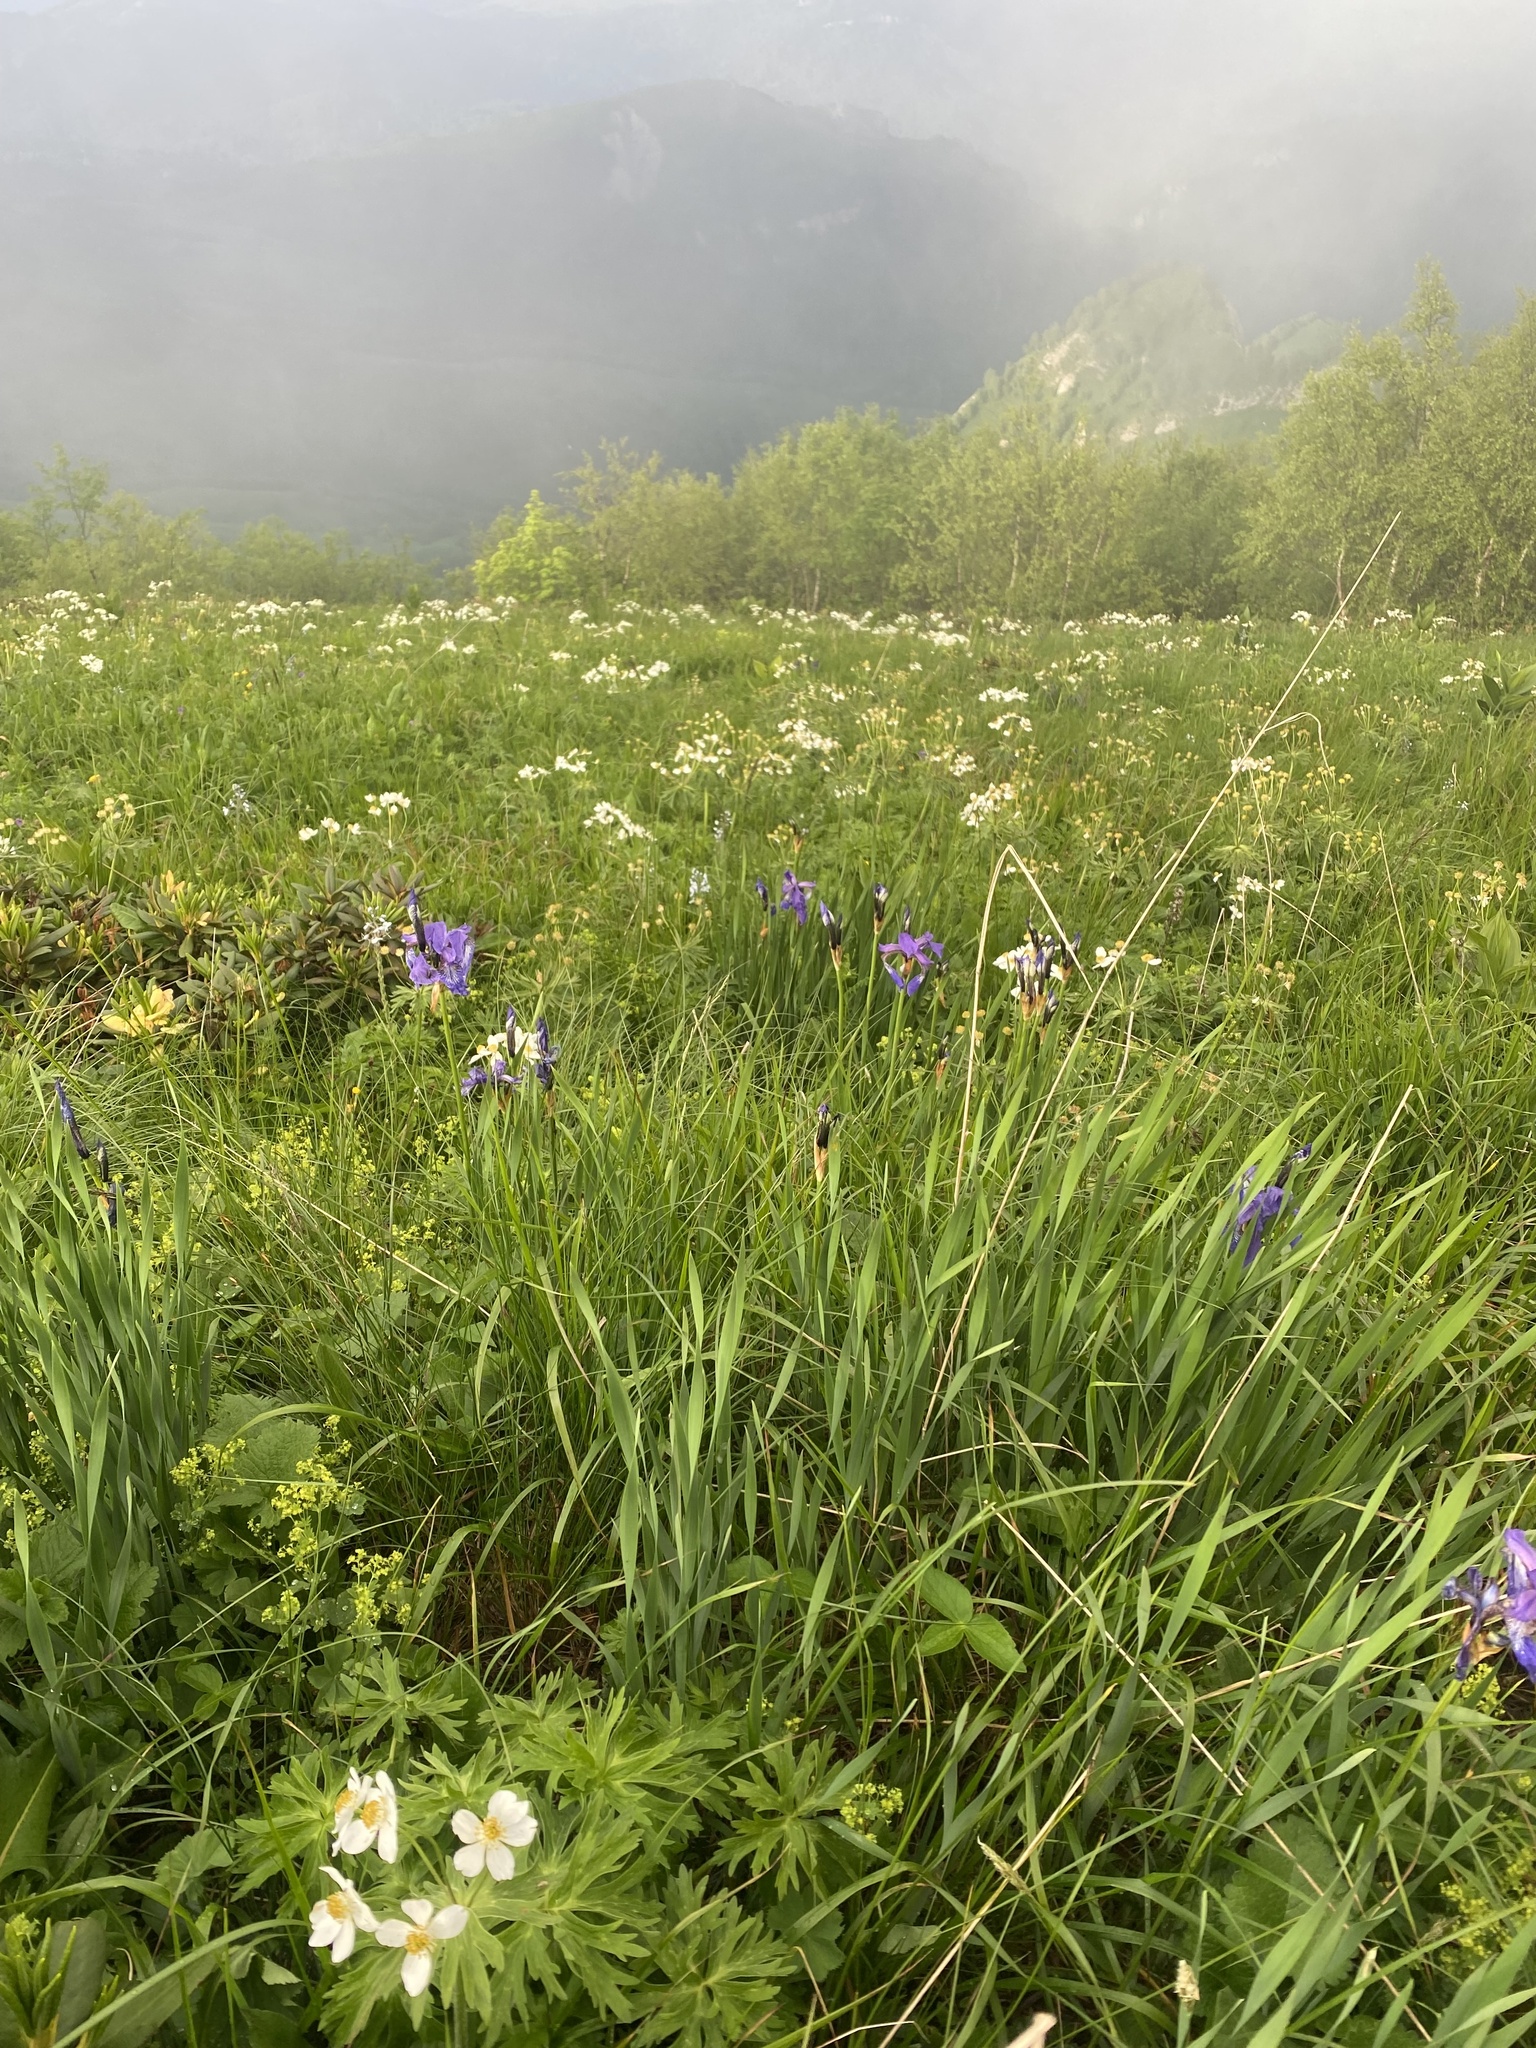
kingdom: Plantae
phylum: Tracheophyta
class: Liliopsida
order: Asparagales
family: Iridaceae
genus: Iris
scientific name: Iris sibirica
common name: Siberian iris
